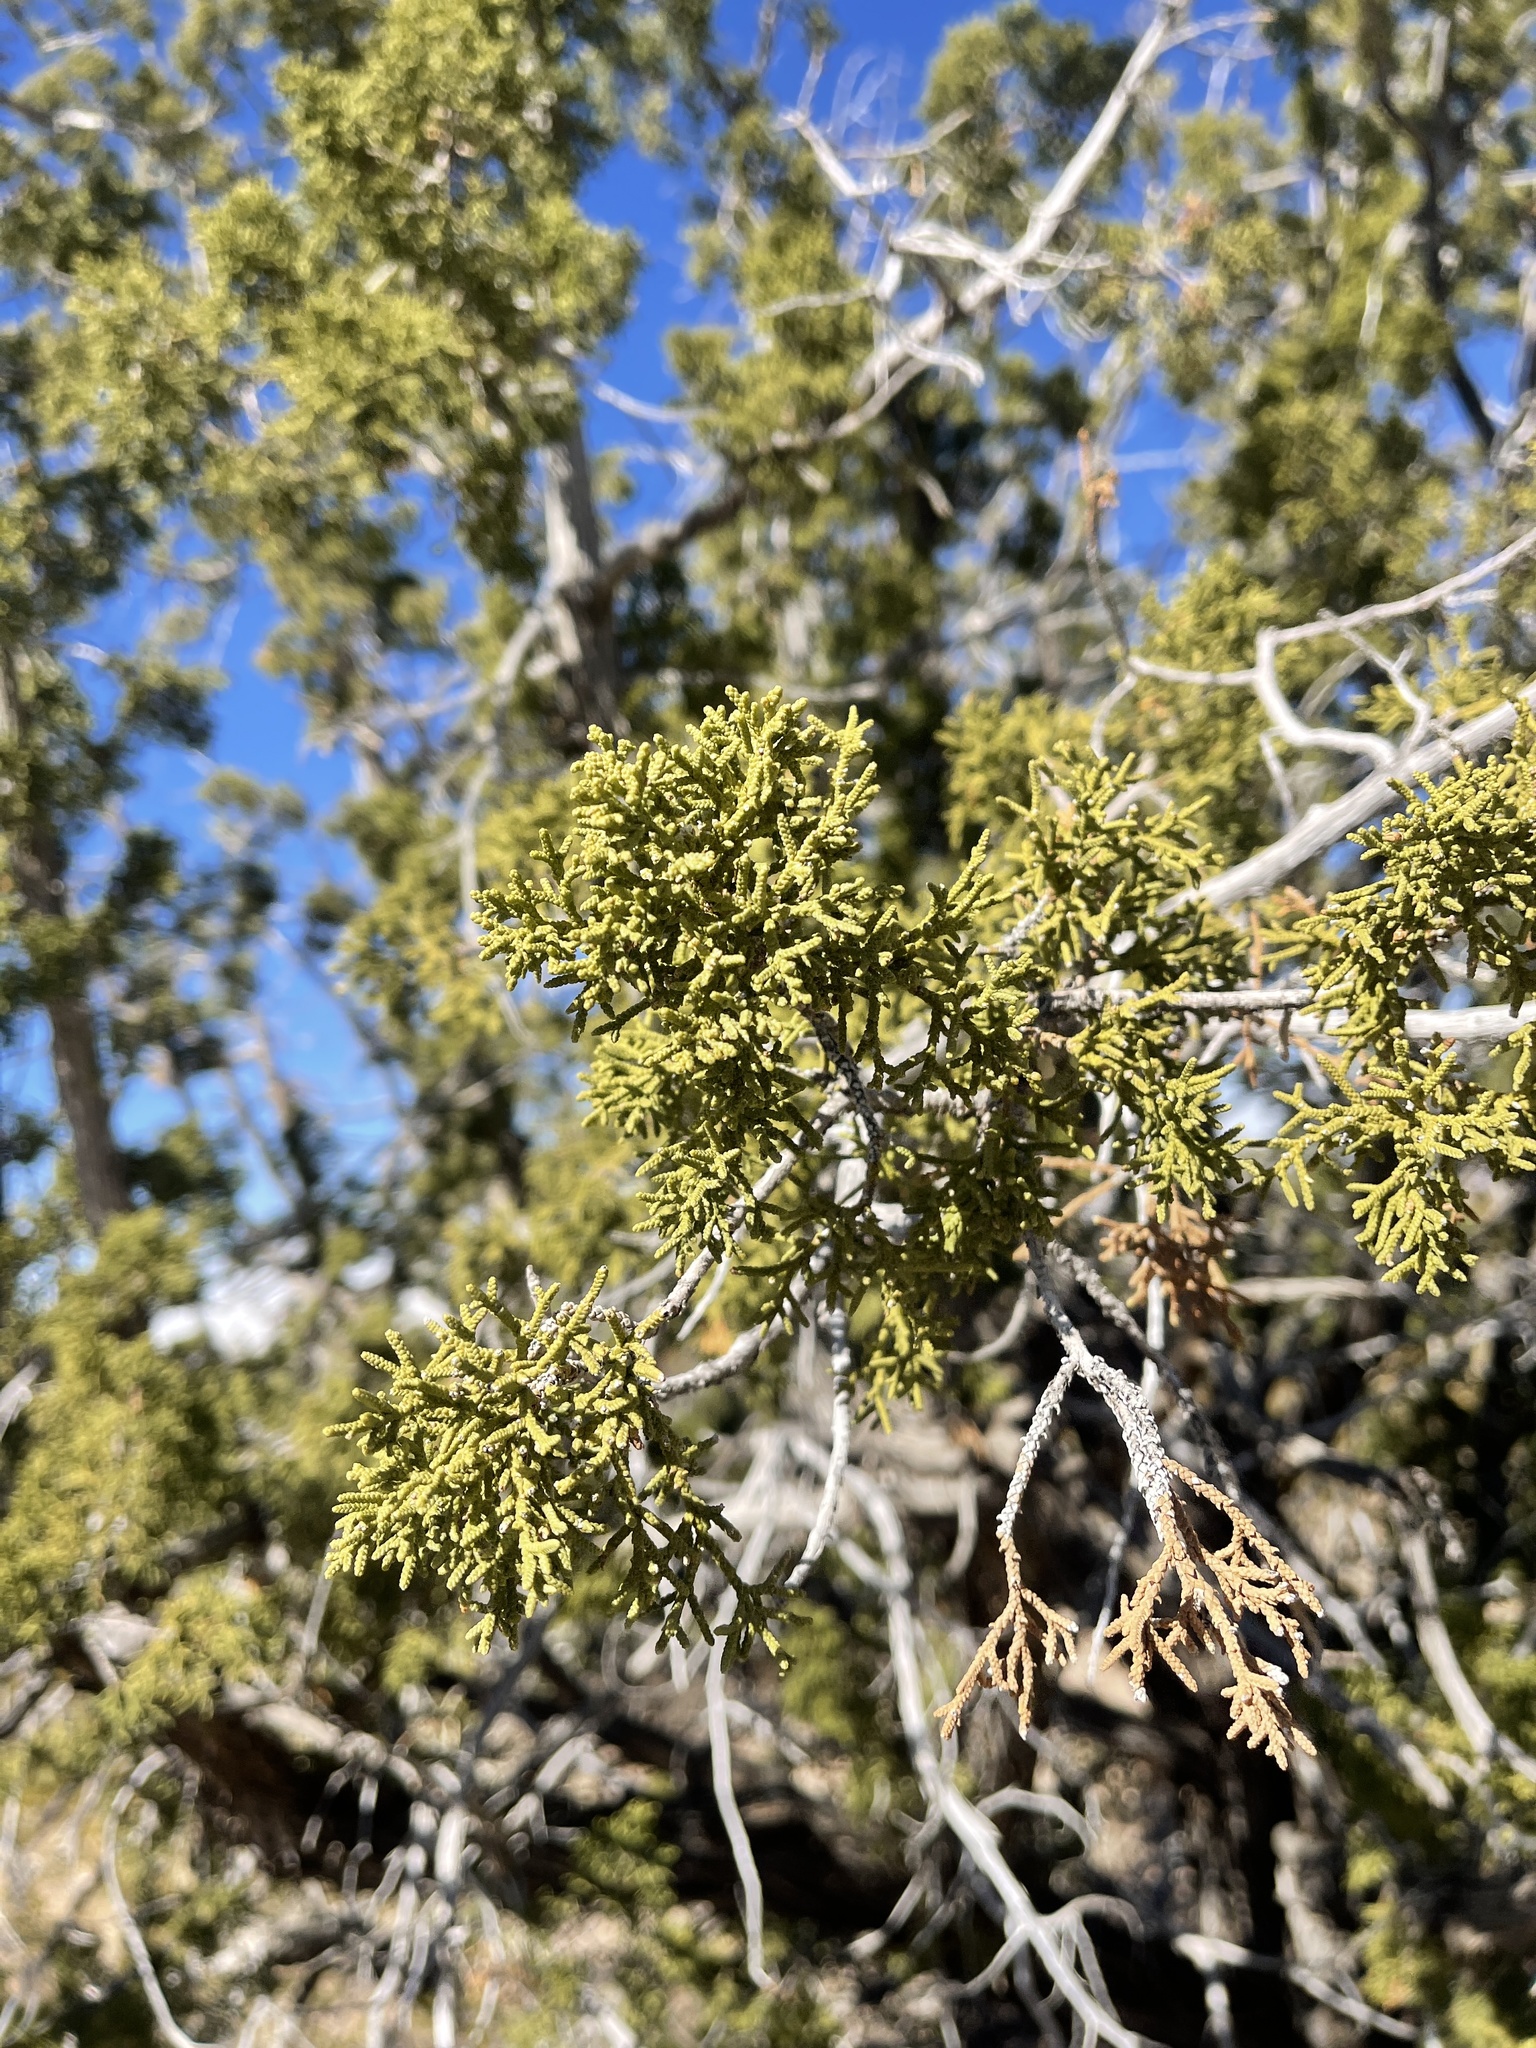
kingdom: Plantae
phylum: Tracheophyta
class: Pinopsida
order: Pinales
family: Cupressaceae
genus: Juniperus
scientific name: Juniperus monosperma
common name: One-seed juniper
